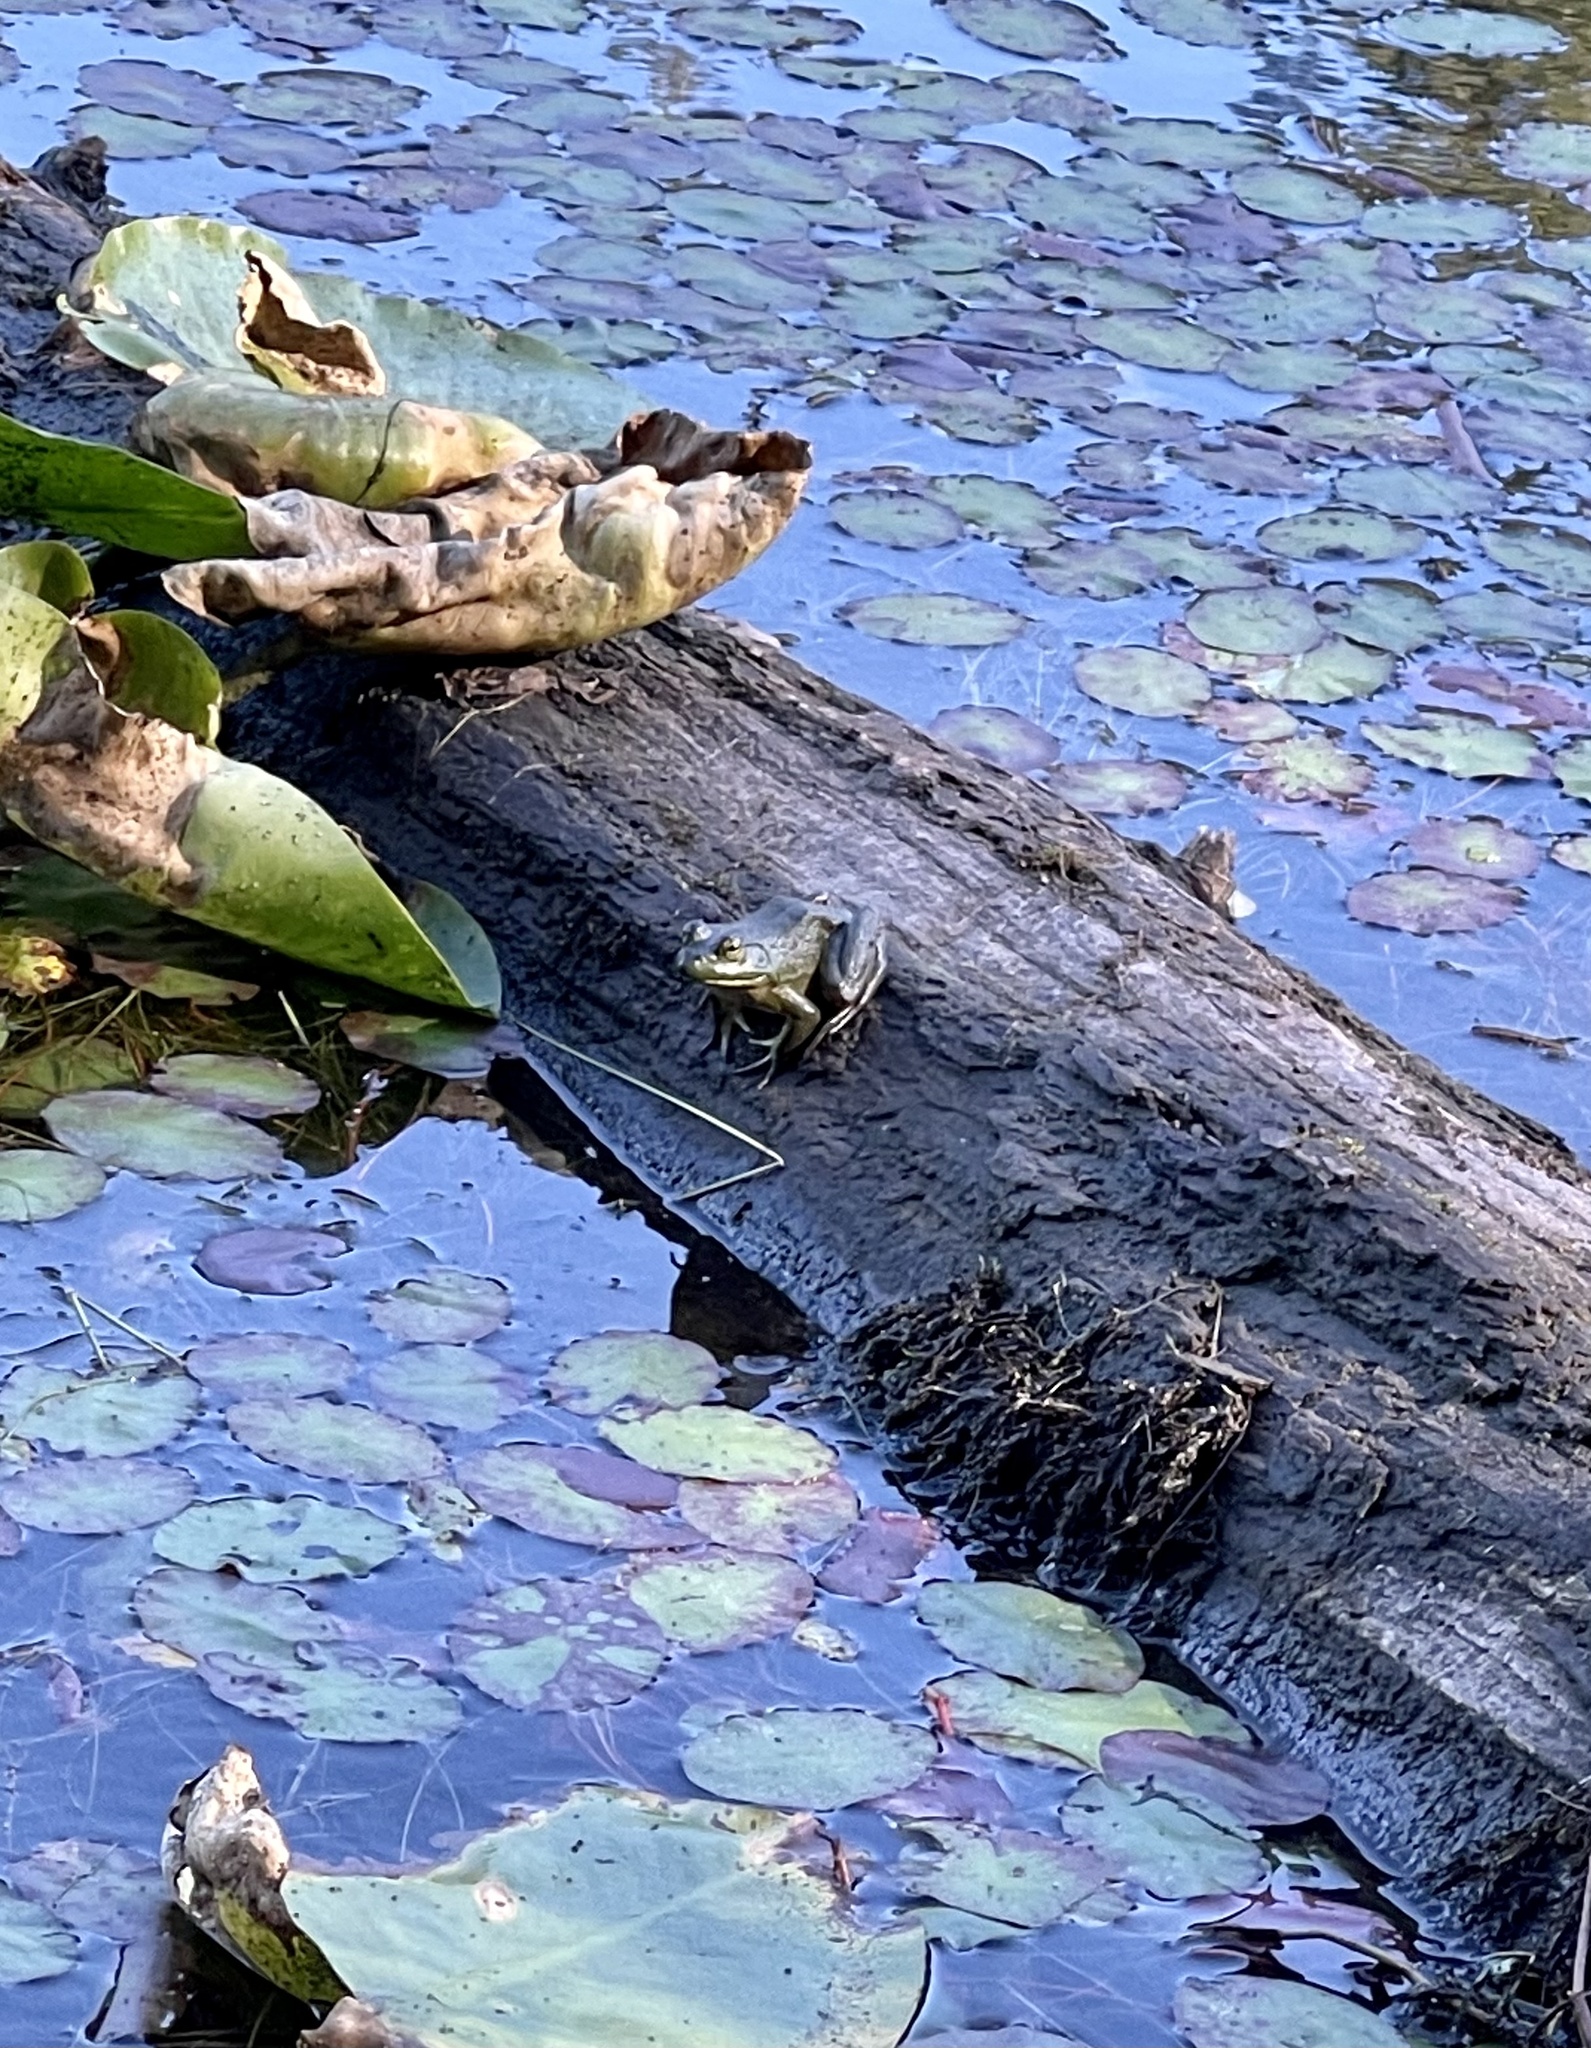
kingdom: Animalia
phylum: Chordata
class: Amphibia
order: Anura
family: Ranidae
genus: Lithobates
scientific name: Lithobates catesbeianus
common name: American bullfrog
